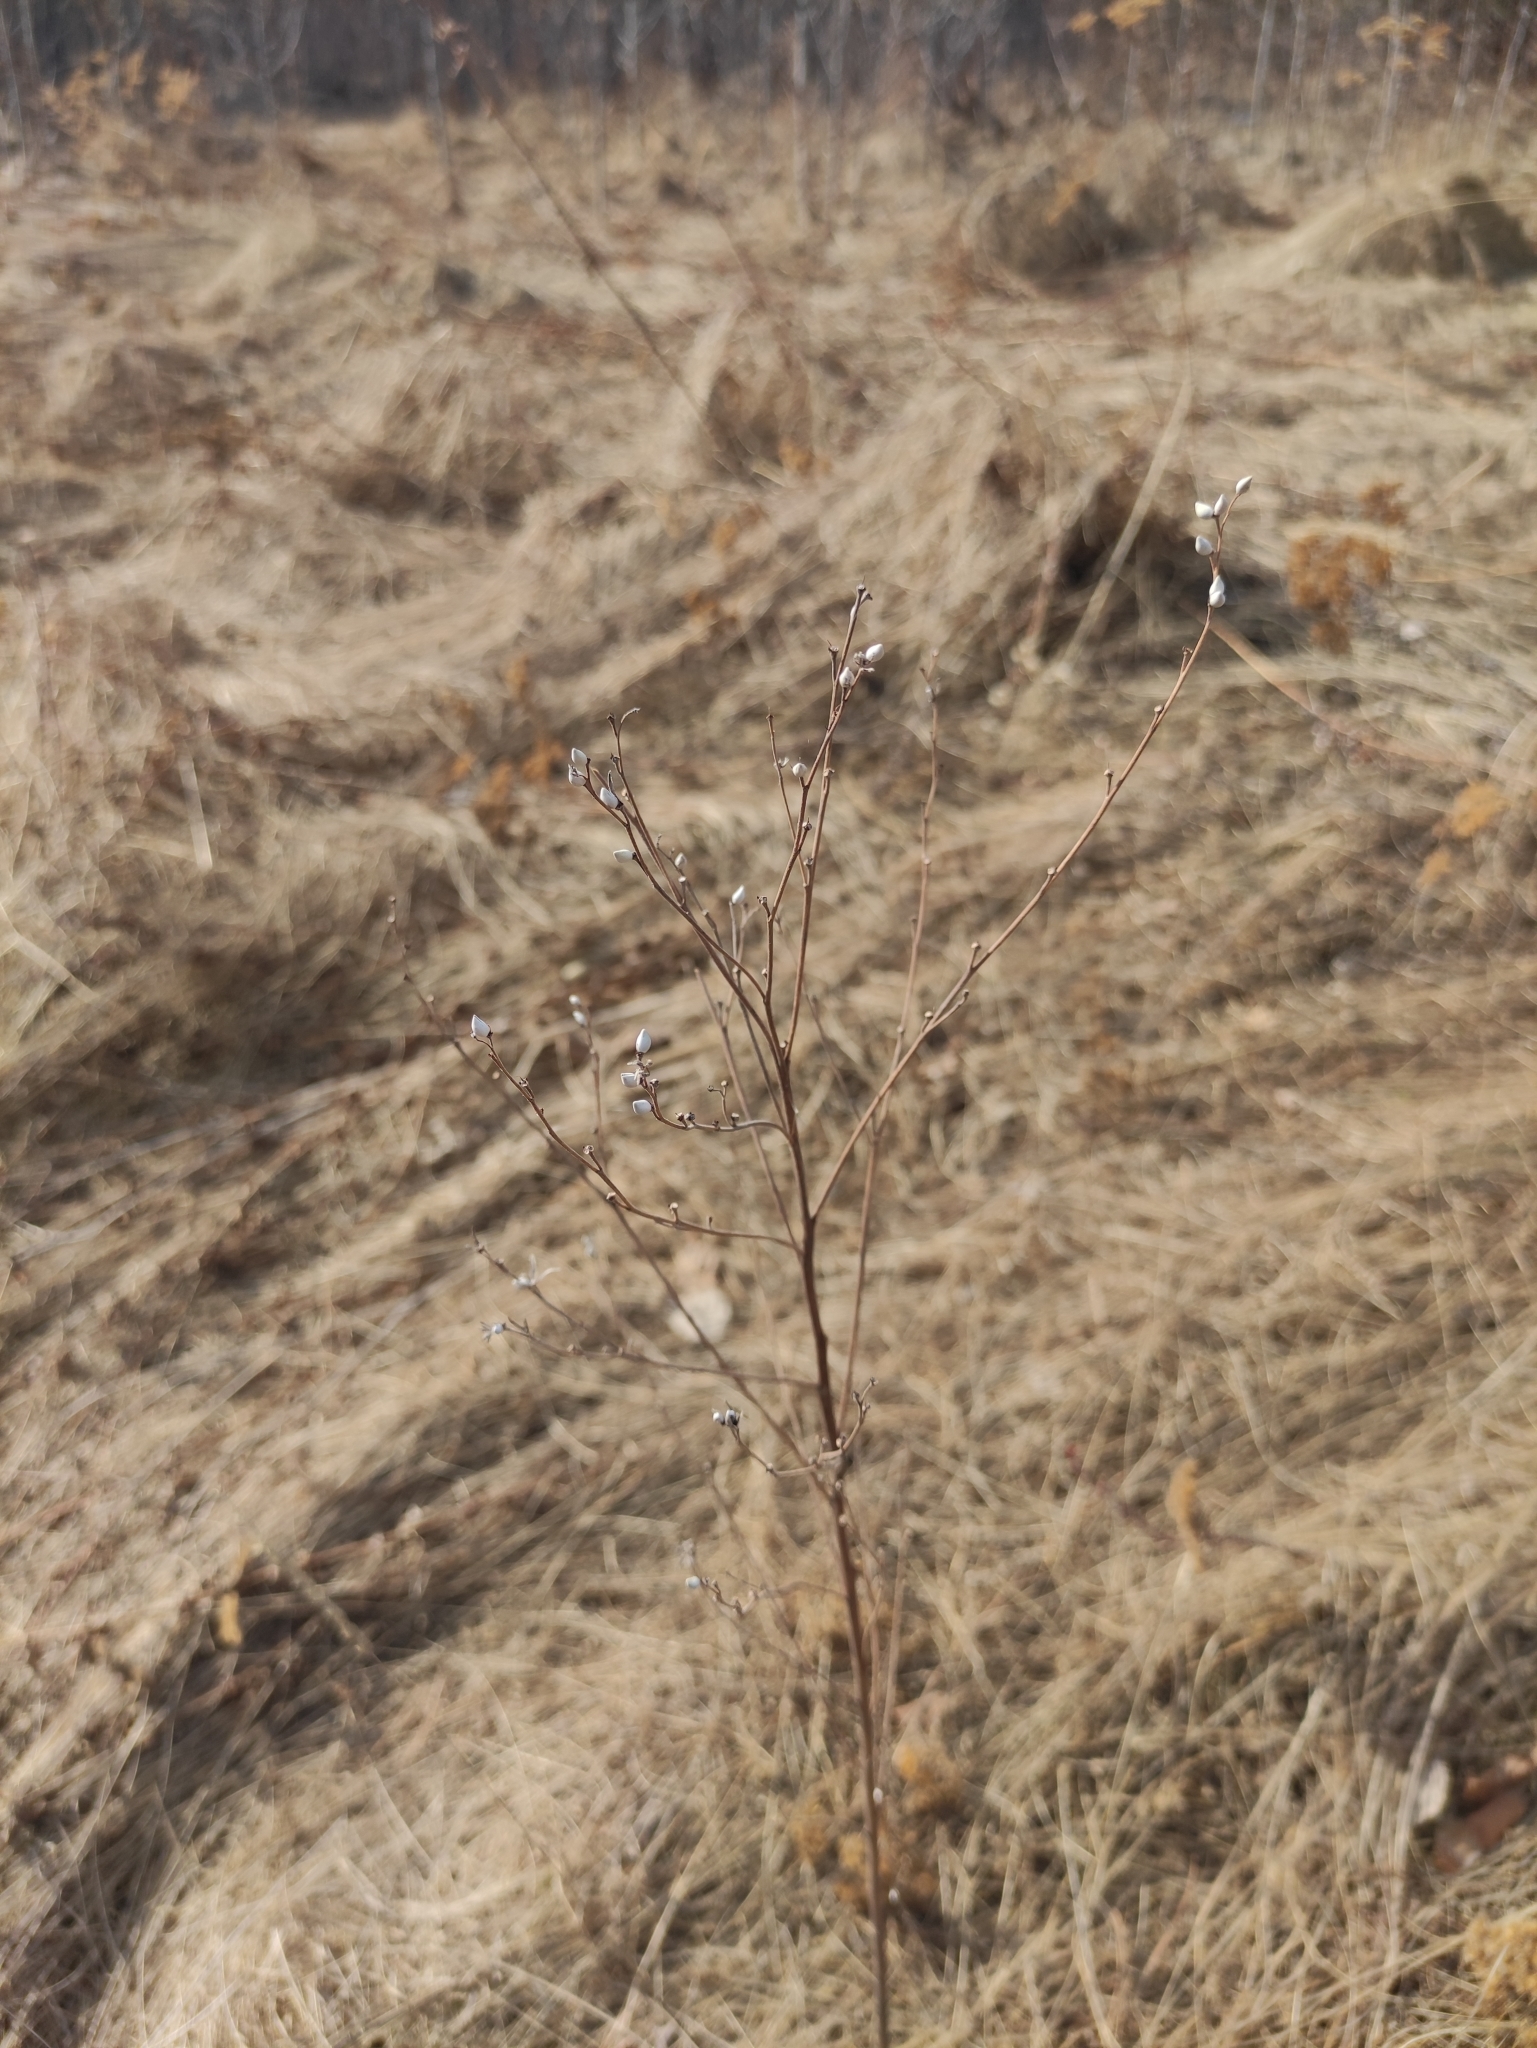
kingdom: Plantae
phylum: Tracheophyta
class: Magnoliopsida
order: Boraginales
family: Boraginaceae
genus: Lithospermum
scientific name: Lithospermum officinale
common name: Common gromwell
